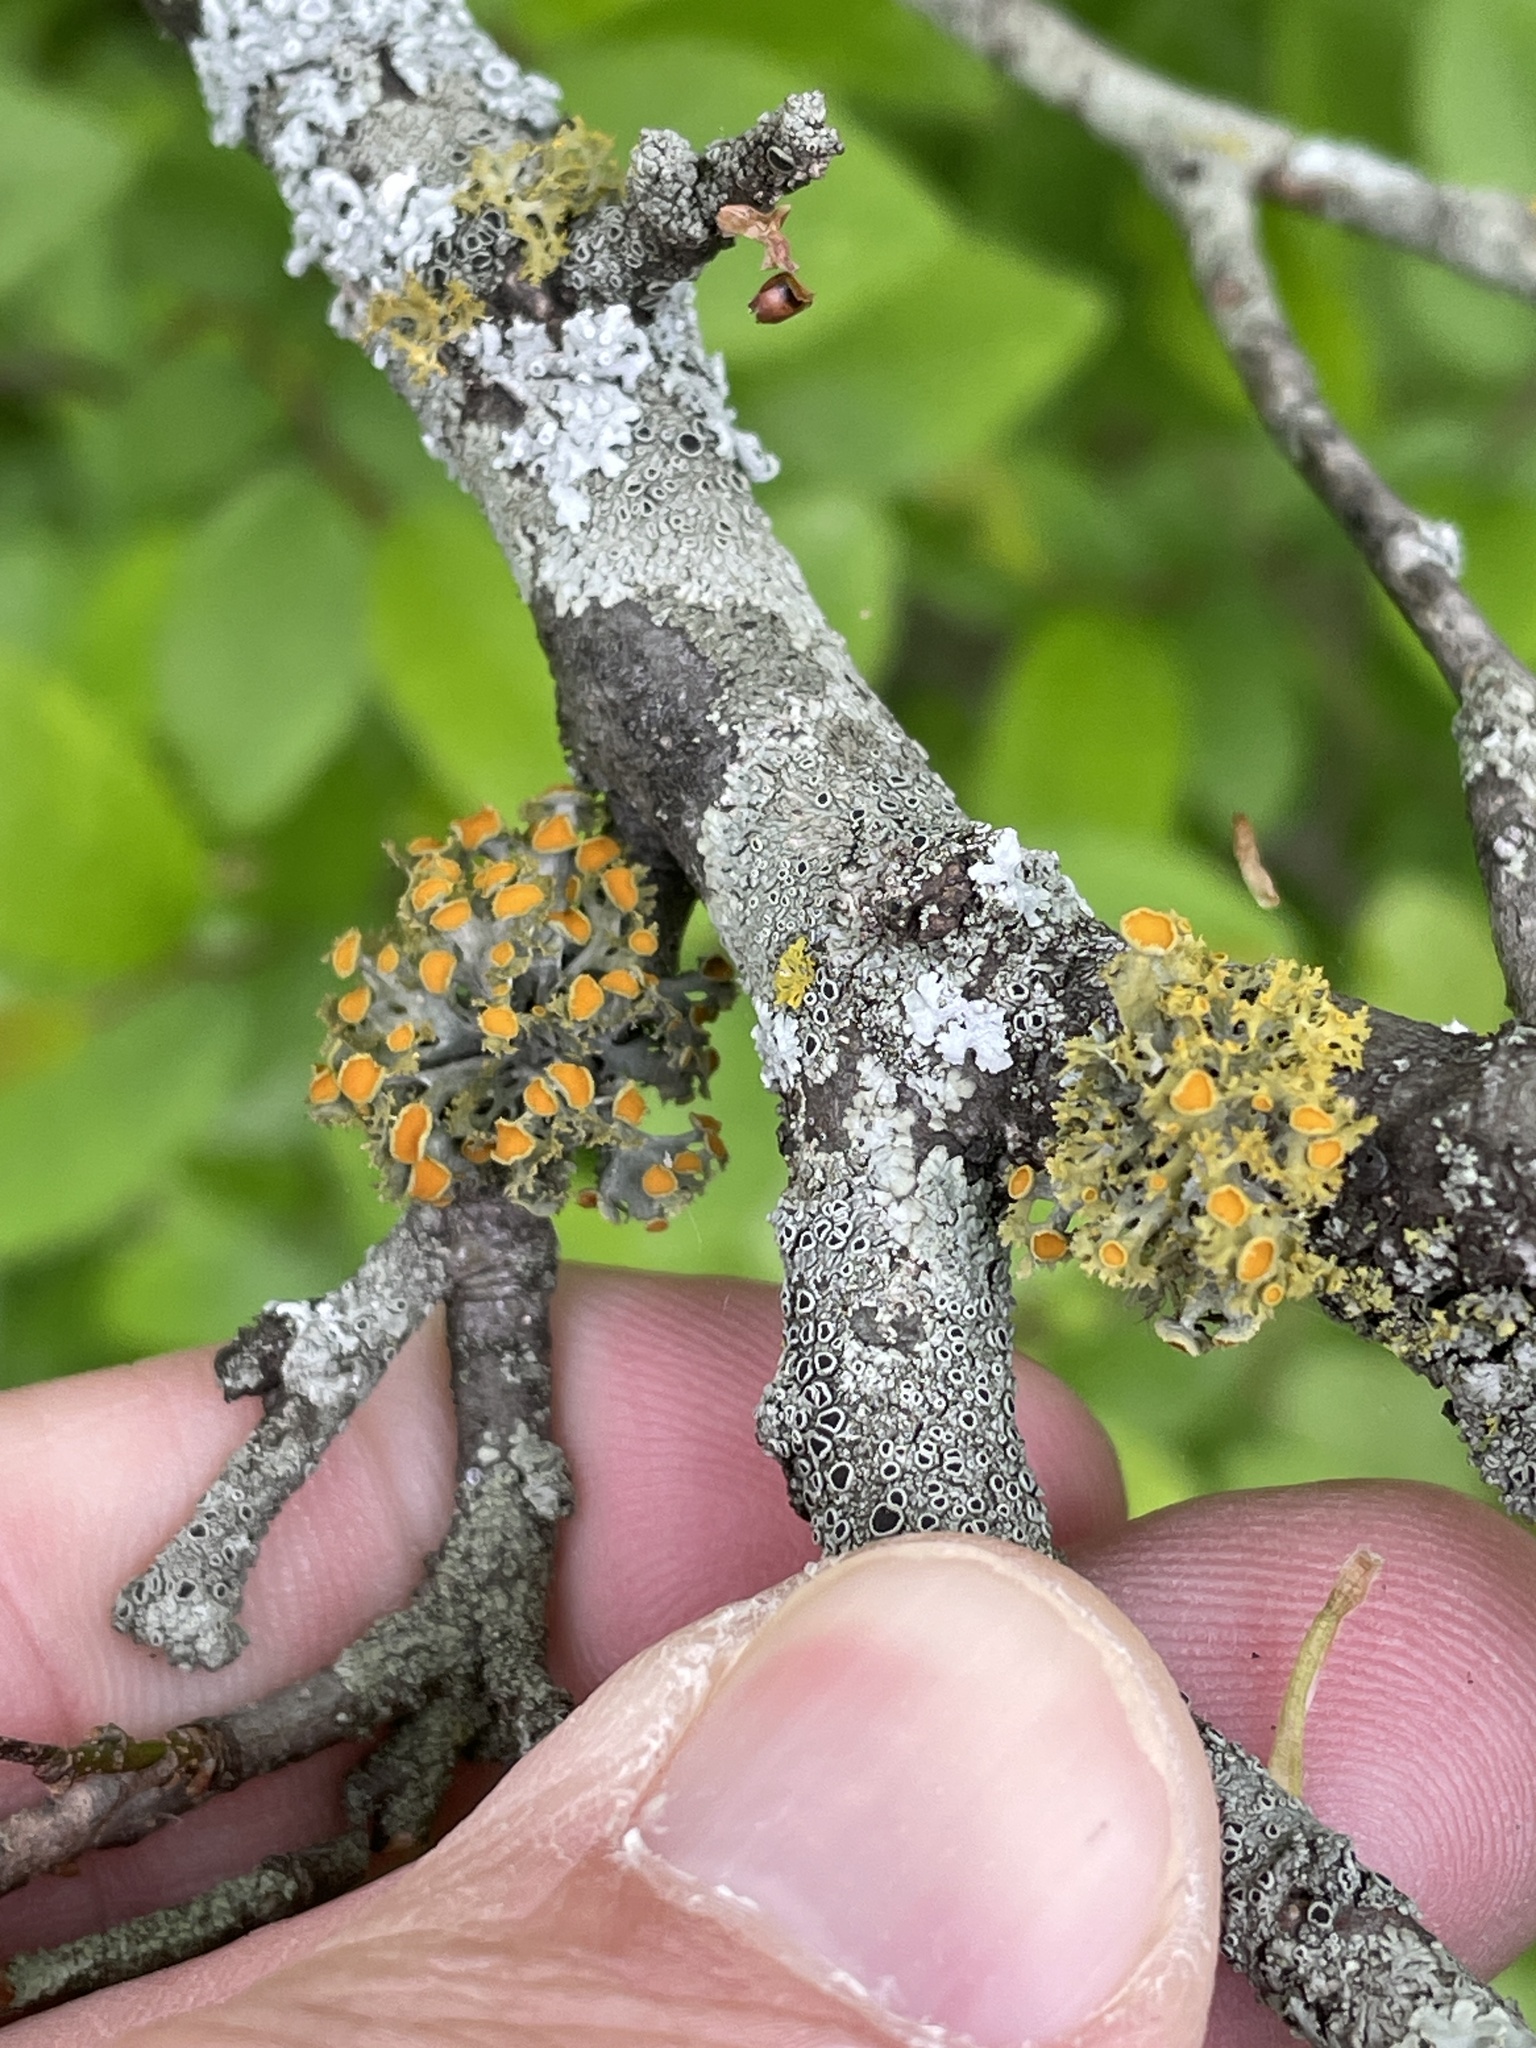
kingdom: Fungi
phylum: Ascomycota
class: Lecanoromycetes
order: Teloschistales
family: Teloschistaceae
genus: Niorma
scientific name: Niorma chrysophthalma
